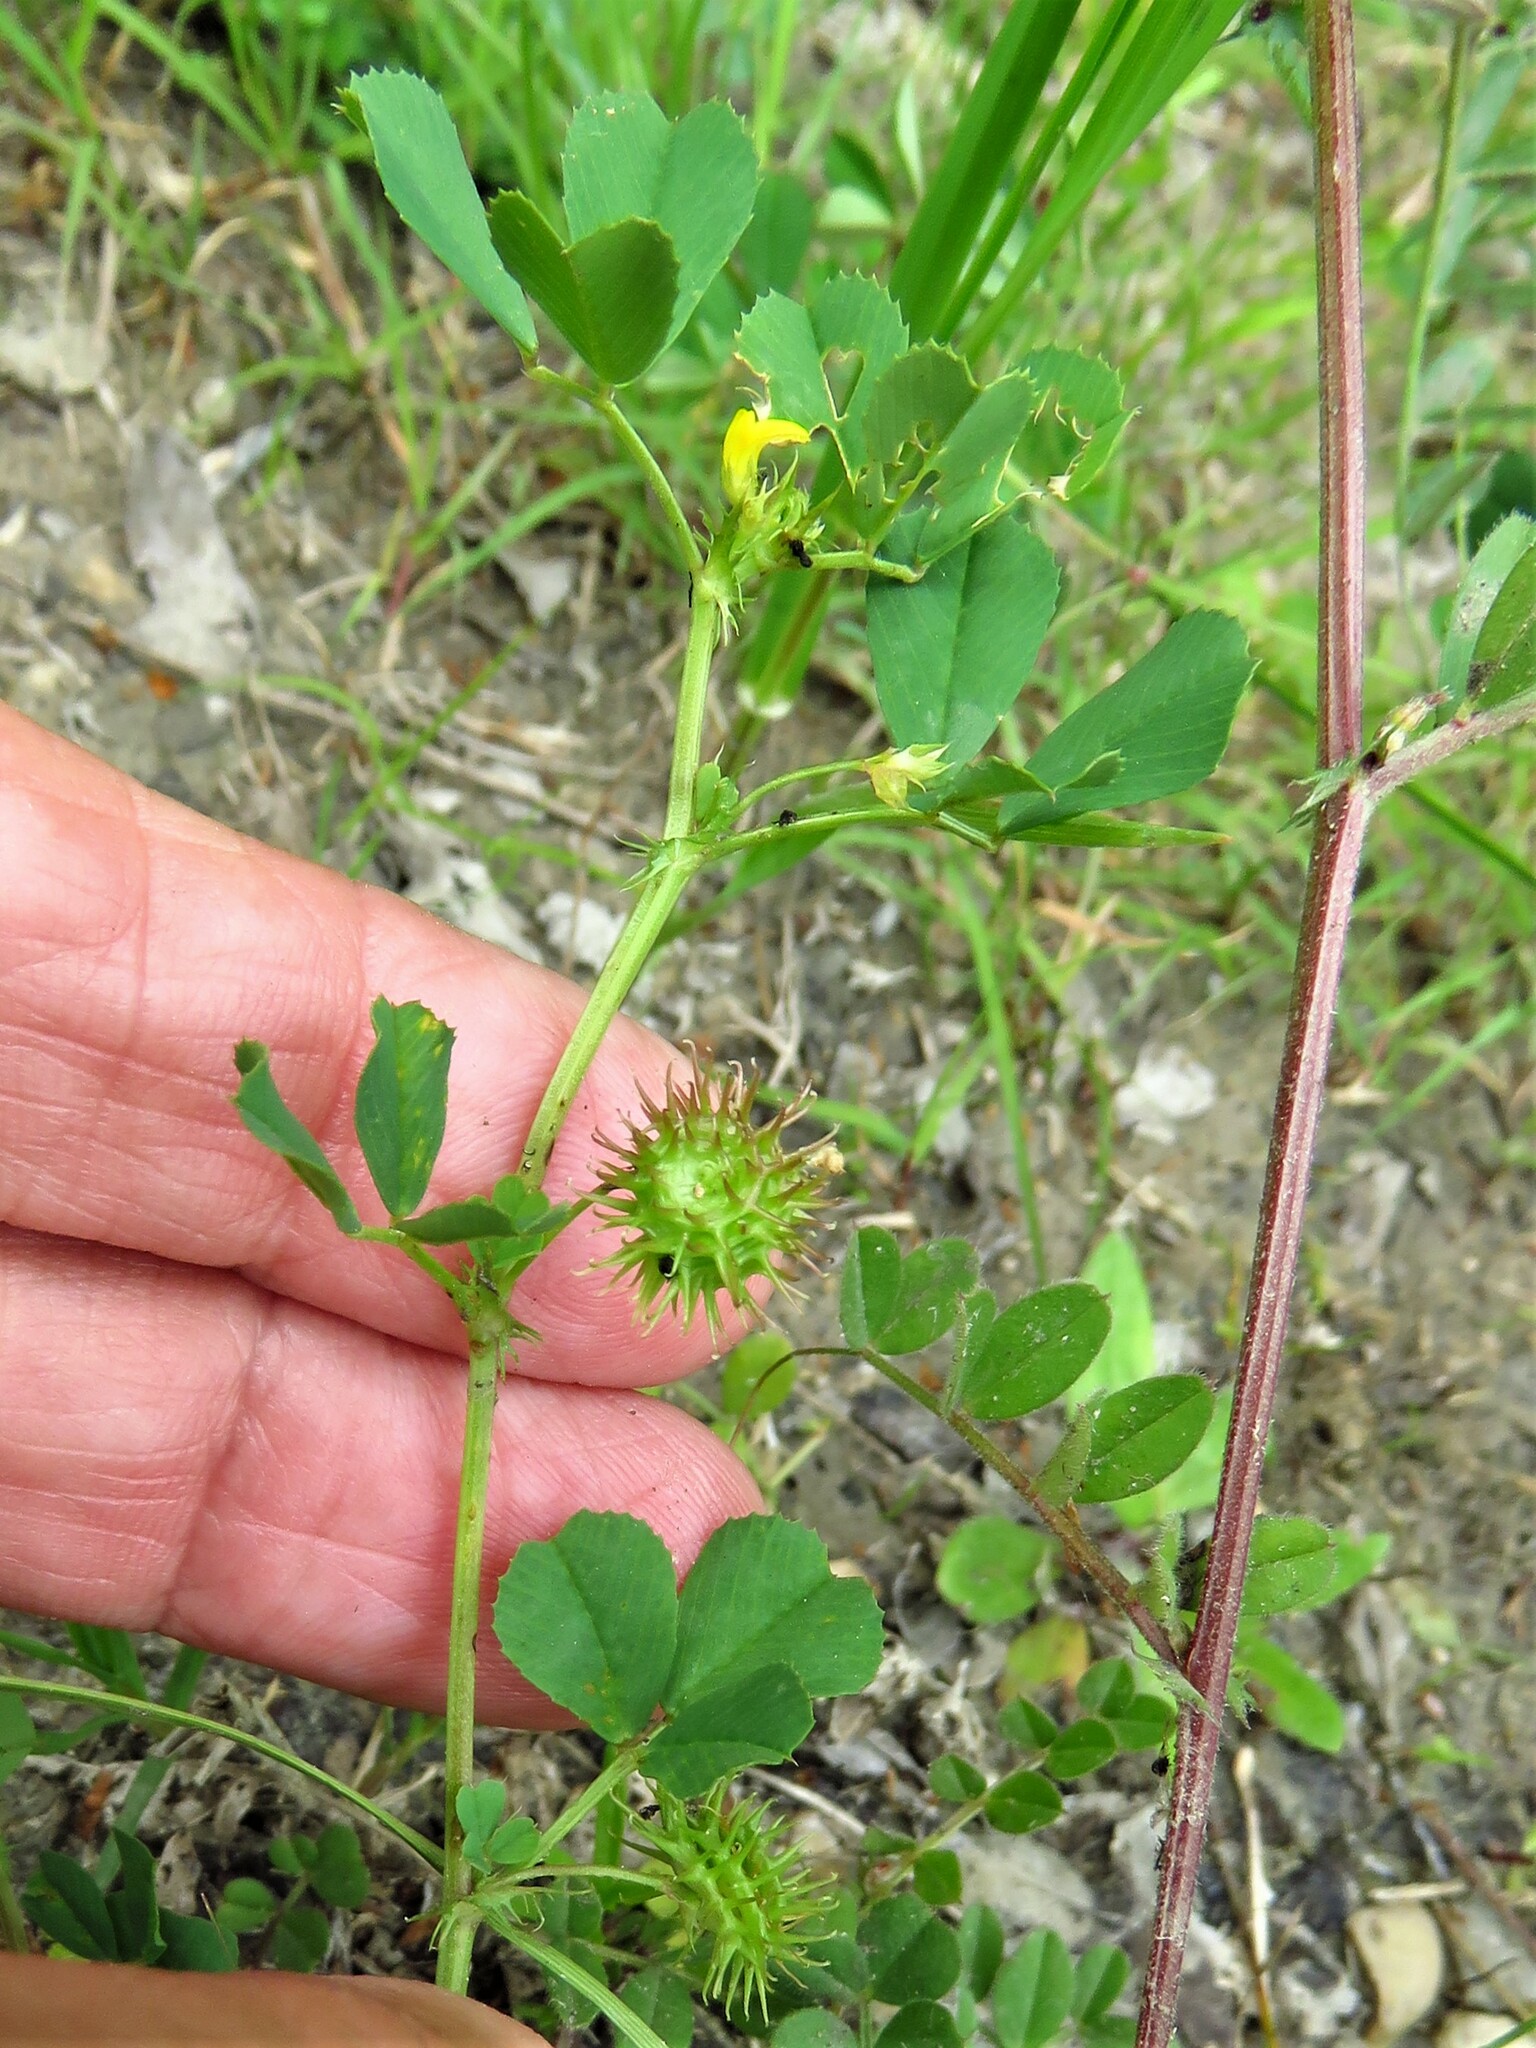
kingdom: Plantae
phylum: Tracheophyta
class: Magnoliopsida
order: Fabales
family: Fabaceae
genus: Medicago
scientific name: Medicago polymorpha
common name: Burclover
